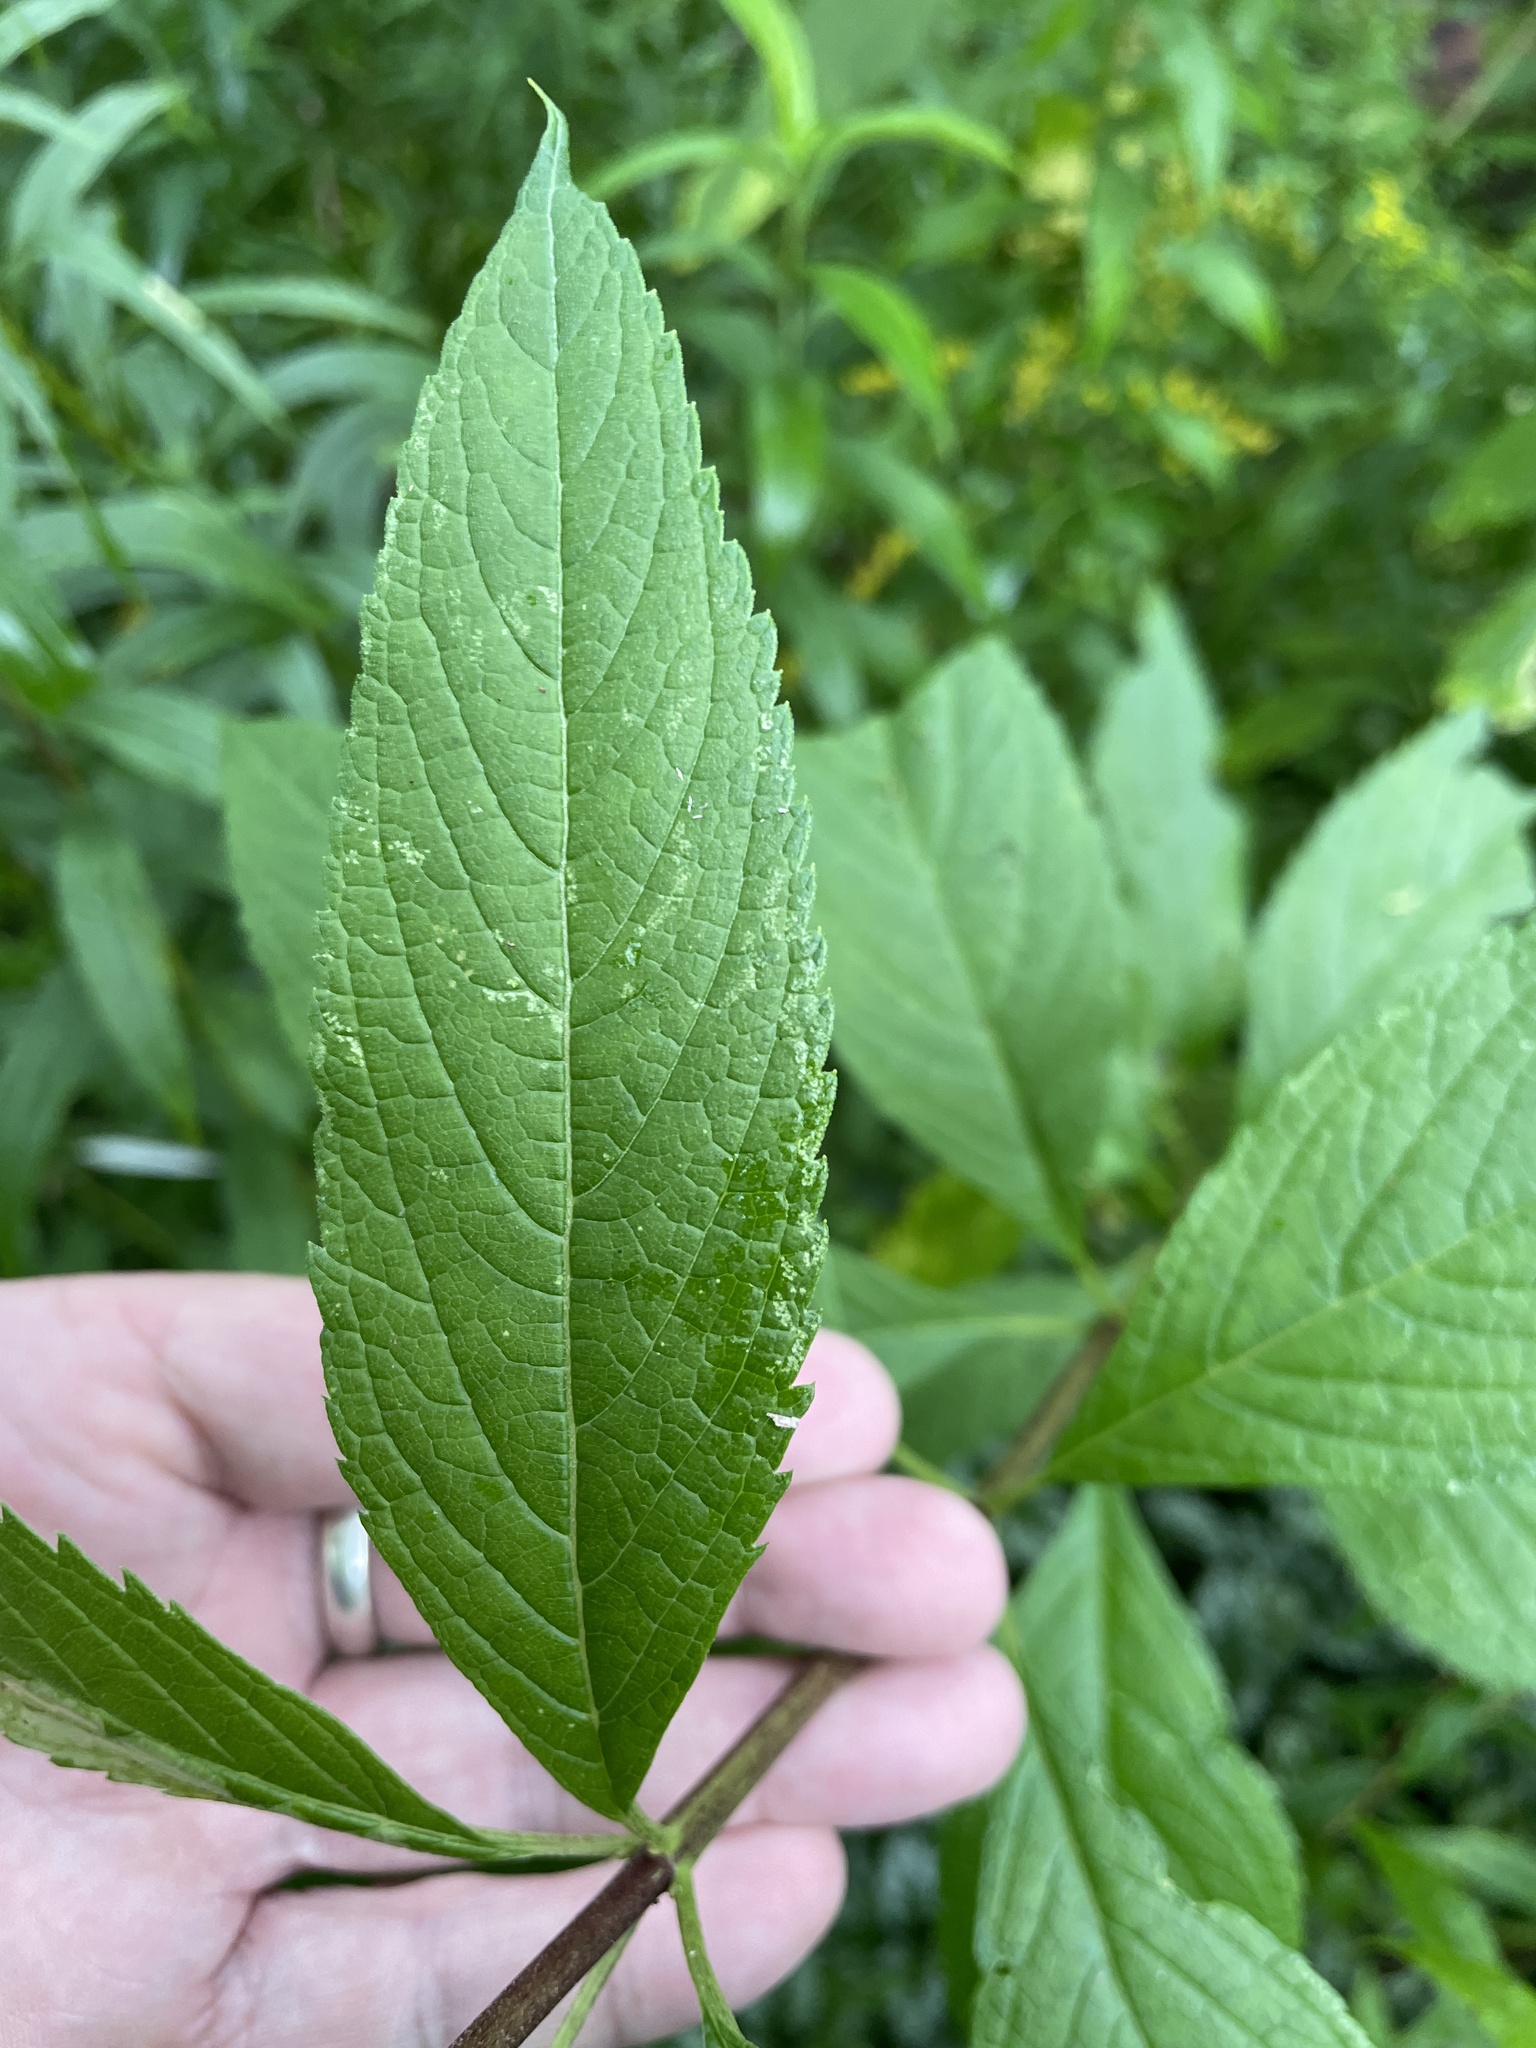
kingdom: Plantae
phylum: Tracheophyta
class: Magnoliopsida
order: Asterales
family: Asteraceae
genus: Eutrochium
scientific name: Eutrochium maculatum
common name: Spotted joe pye weed
